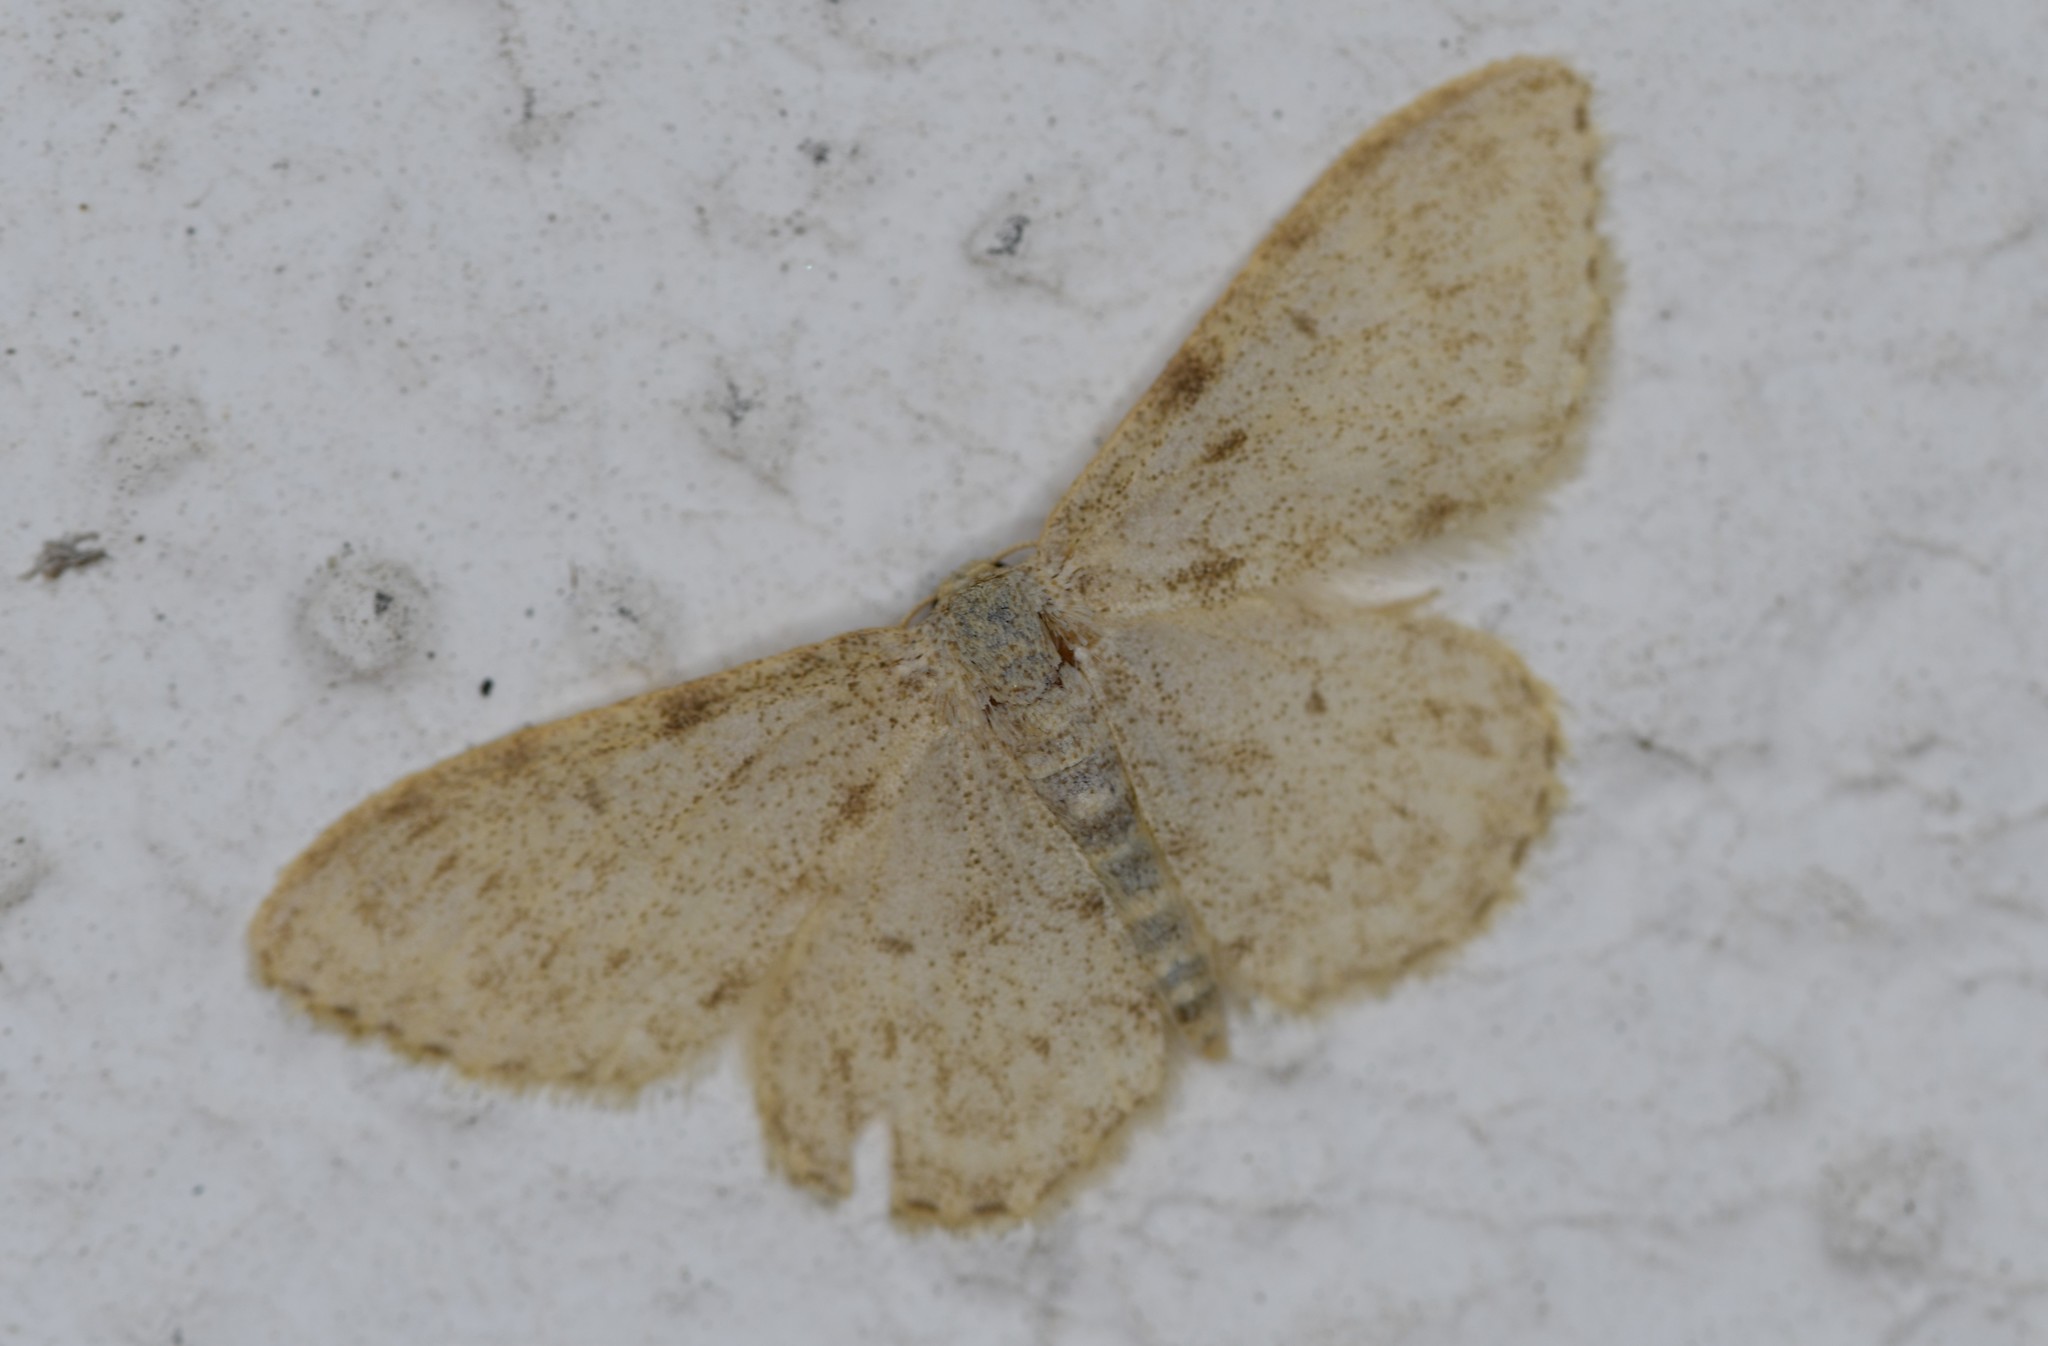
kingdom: Animalia
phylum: Arthropoda
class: Insecta
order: Lepidoptera
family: Geometridae
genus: Idaea
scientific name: Idaea cervantaria
